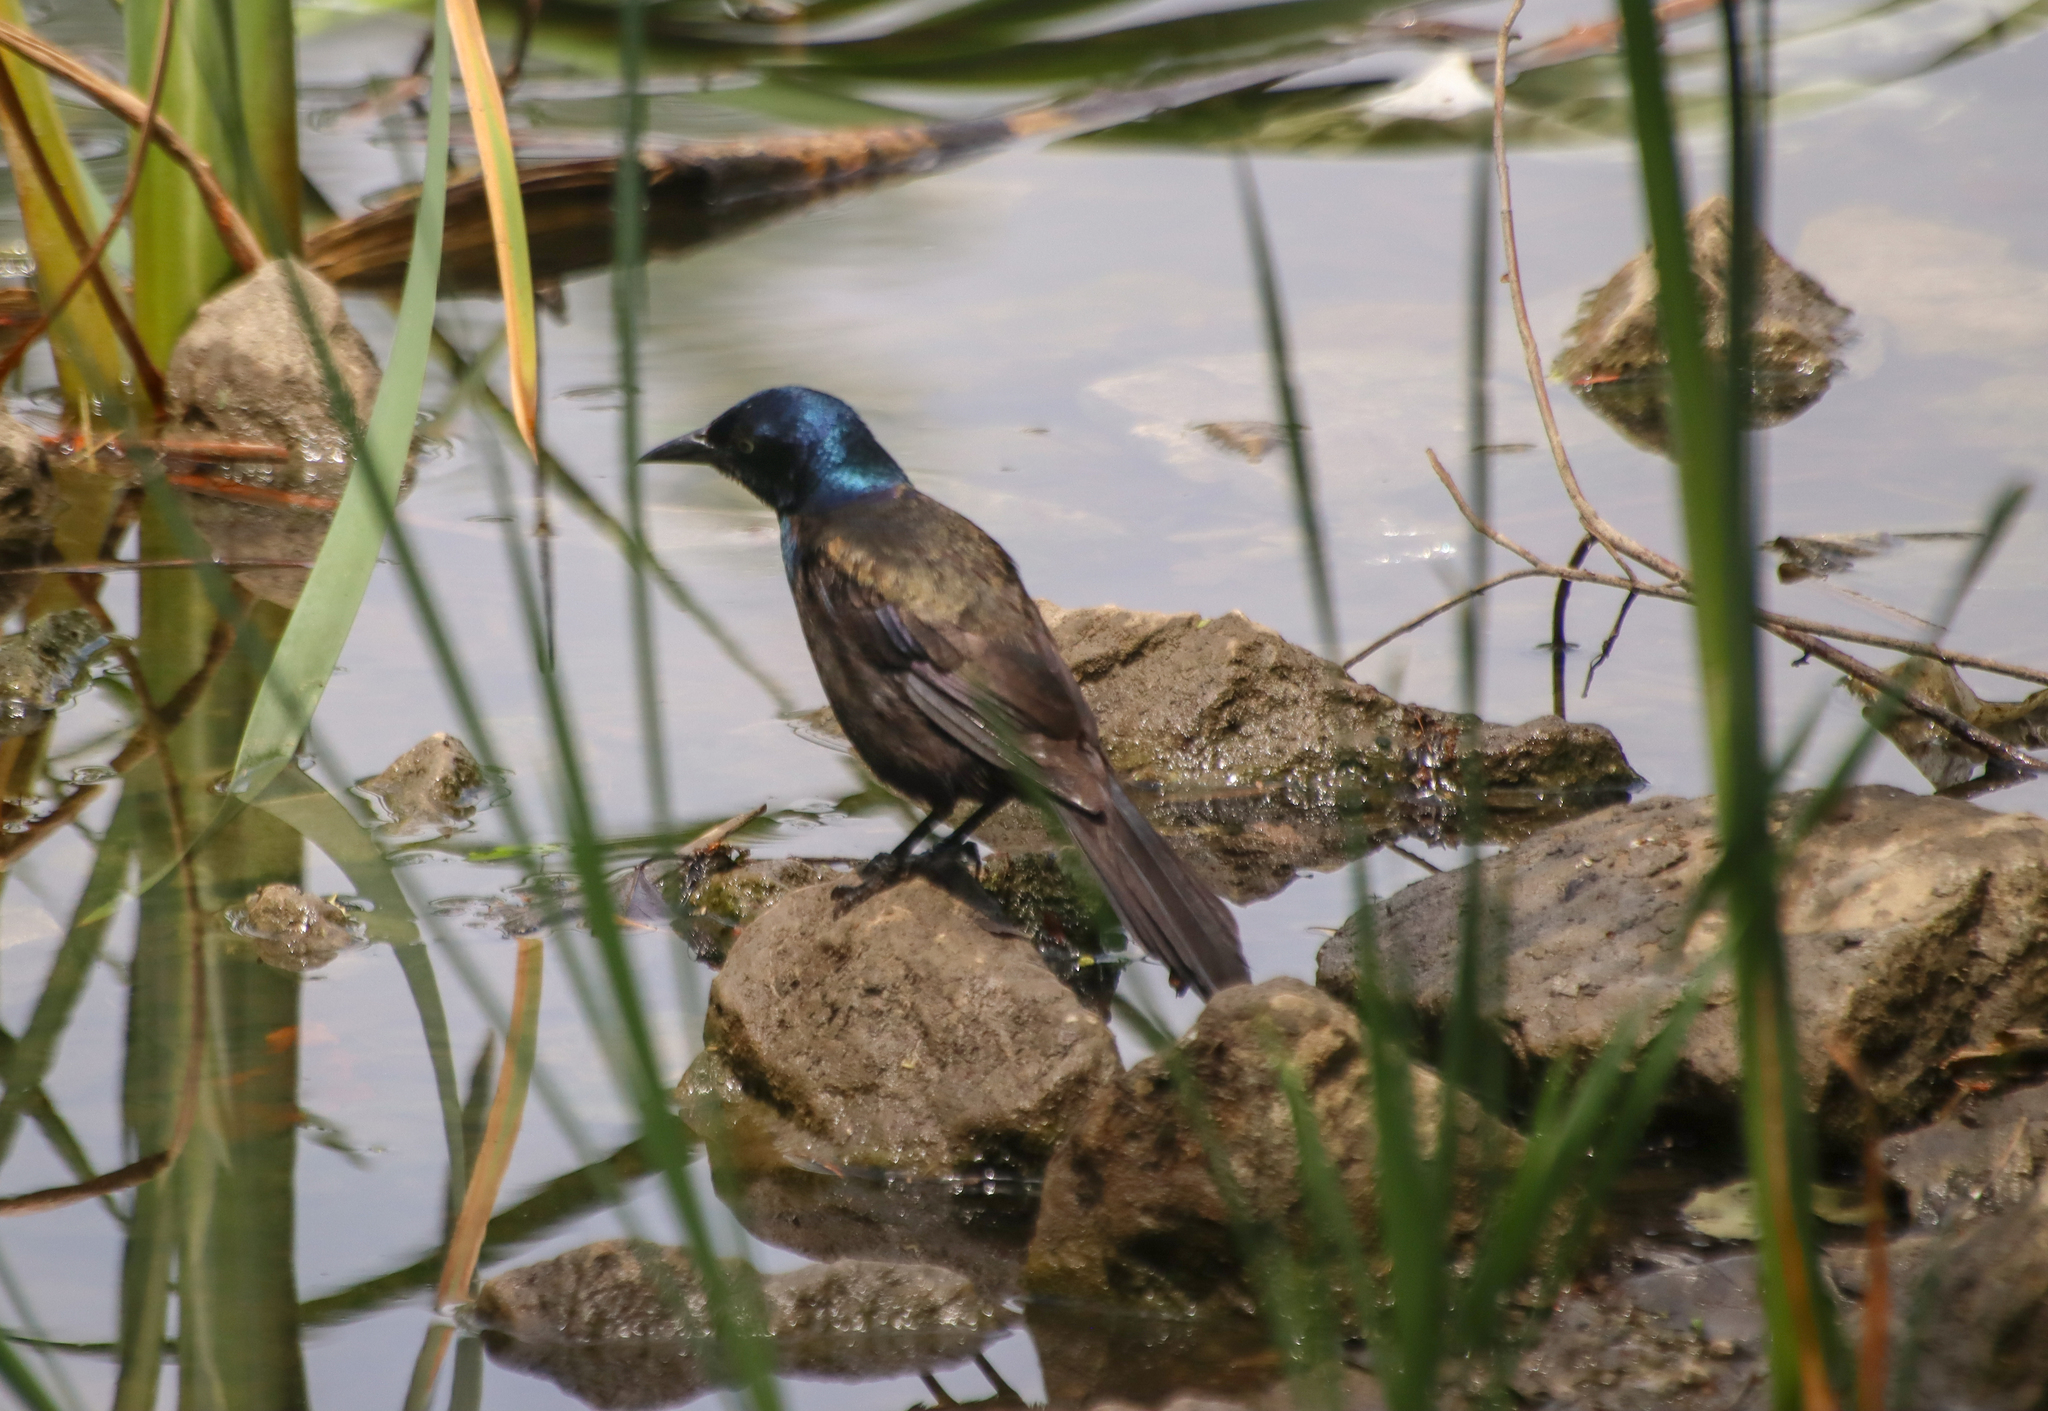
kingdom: Animalia
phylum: Chordata
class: Aves
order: Passeriformes
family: Icteridae
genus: Quiscalus
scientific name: Quiscalus quiscula
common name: Common grackle
